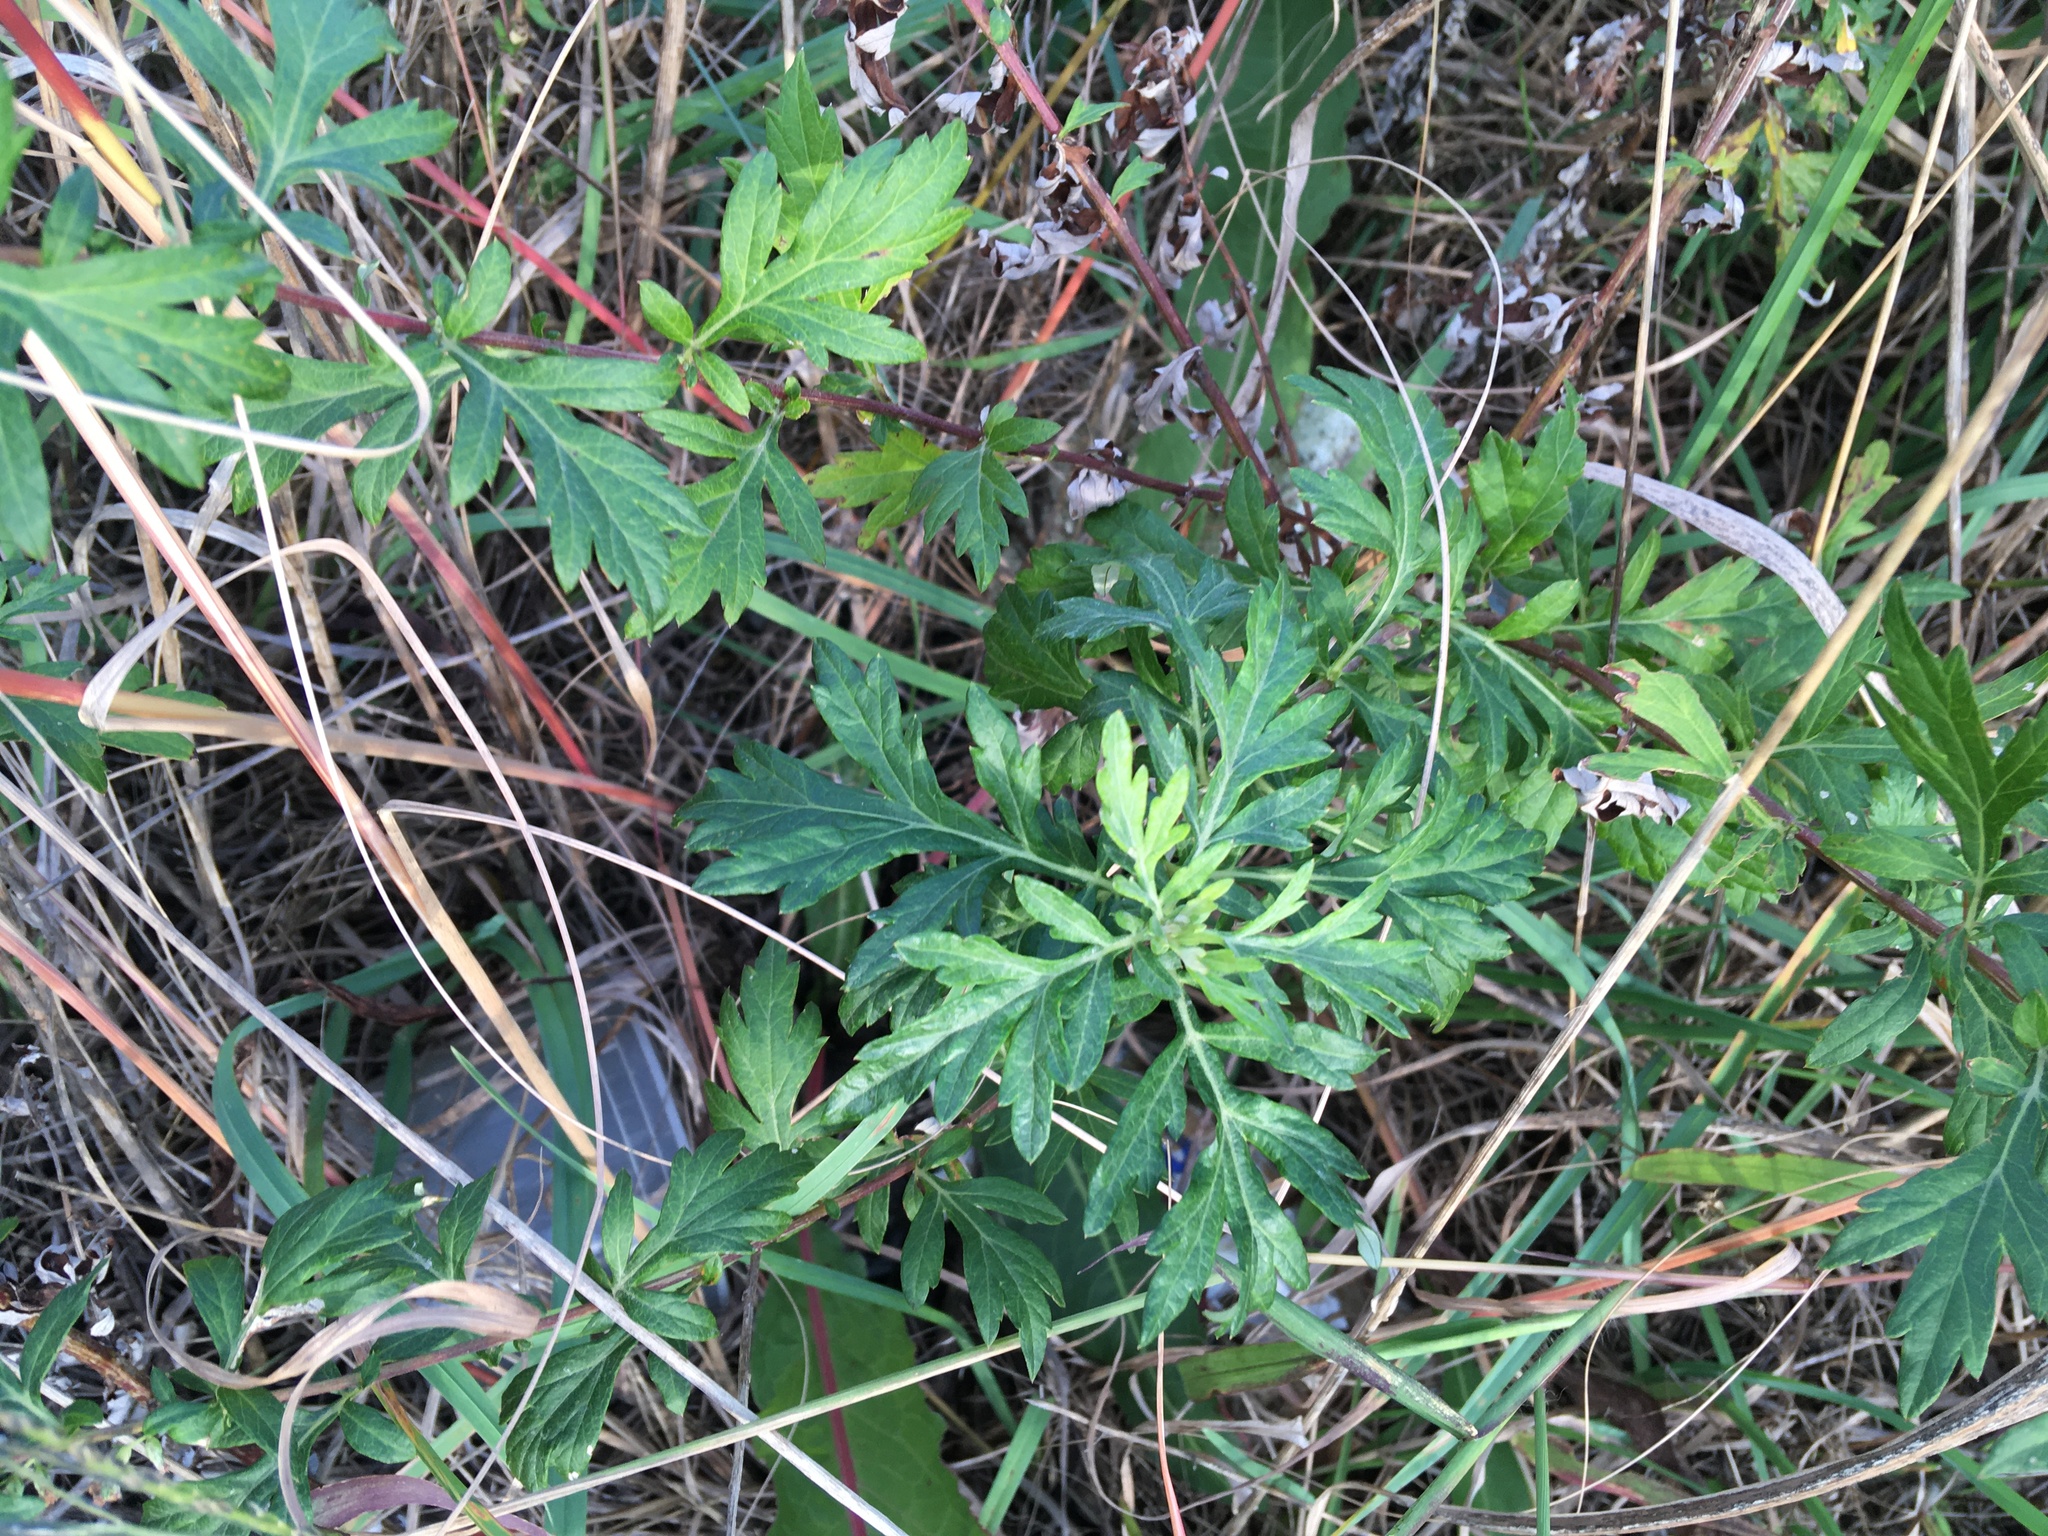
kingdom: Plantae
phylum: Tracheophyta
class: Magnoliopsida
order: Asterales
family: Asteraceae
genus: Artemisia
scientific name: Artemisia vulgaris
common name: Mugwort
